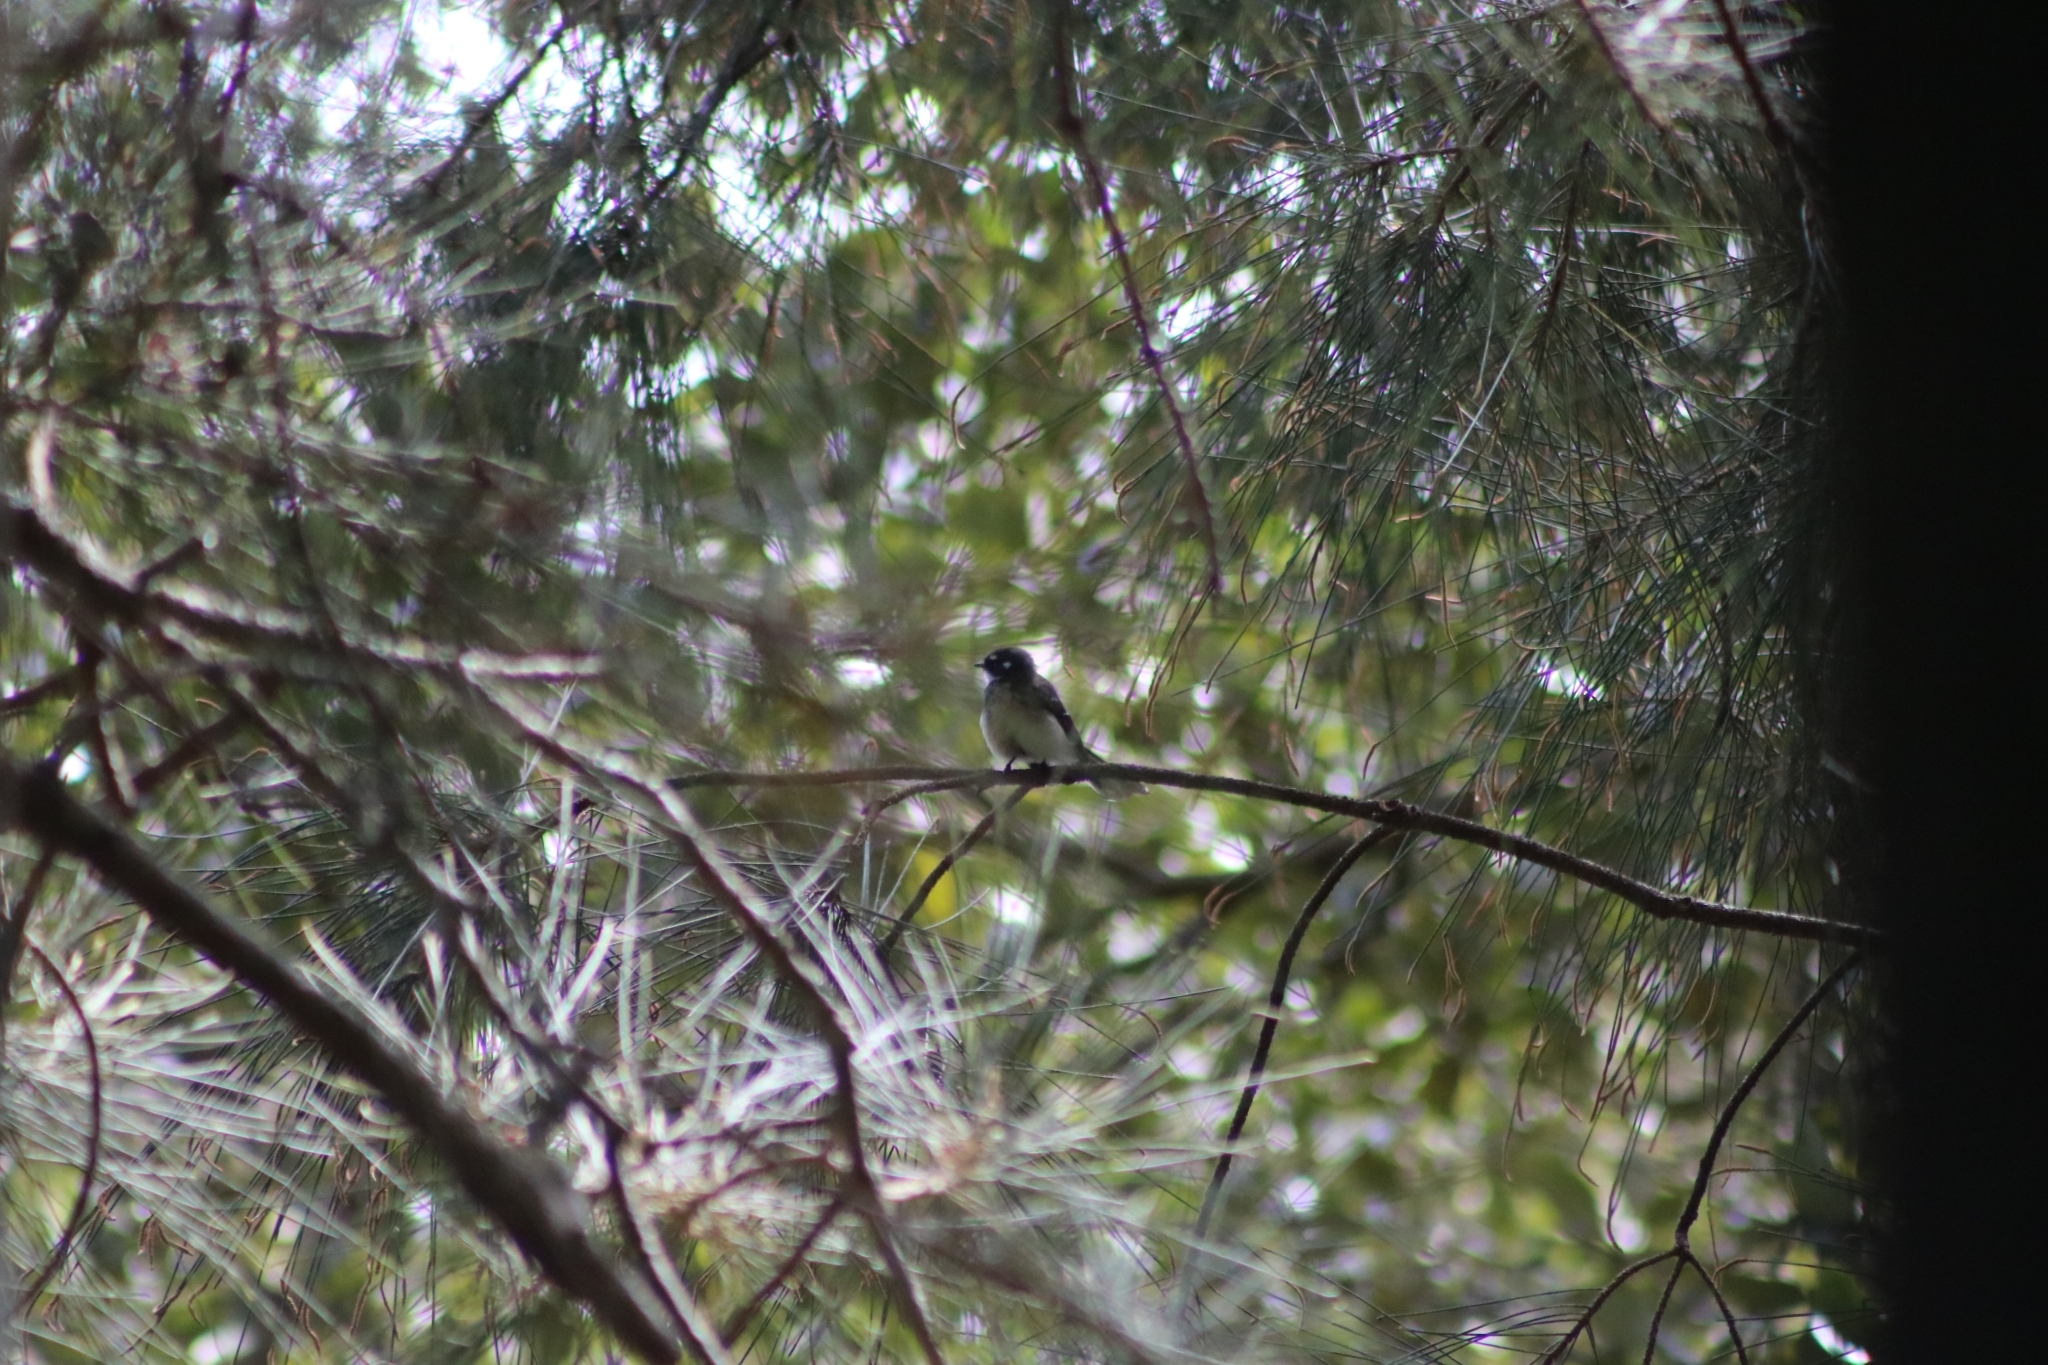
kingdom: Animalia
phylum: Chordata
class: Aves
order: Passeriformes
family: Rhipiduridae
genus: Rhipidura
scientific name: Rhipidura albiscapa
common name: Grey fantail
